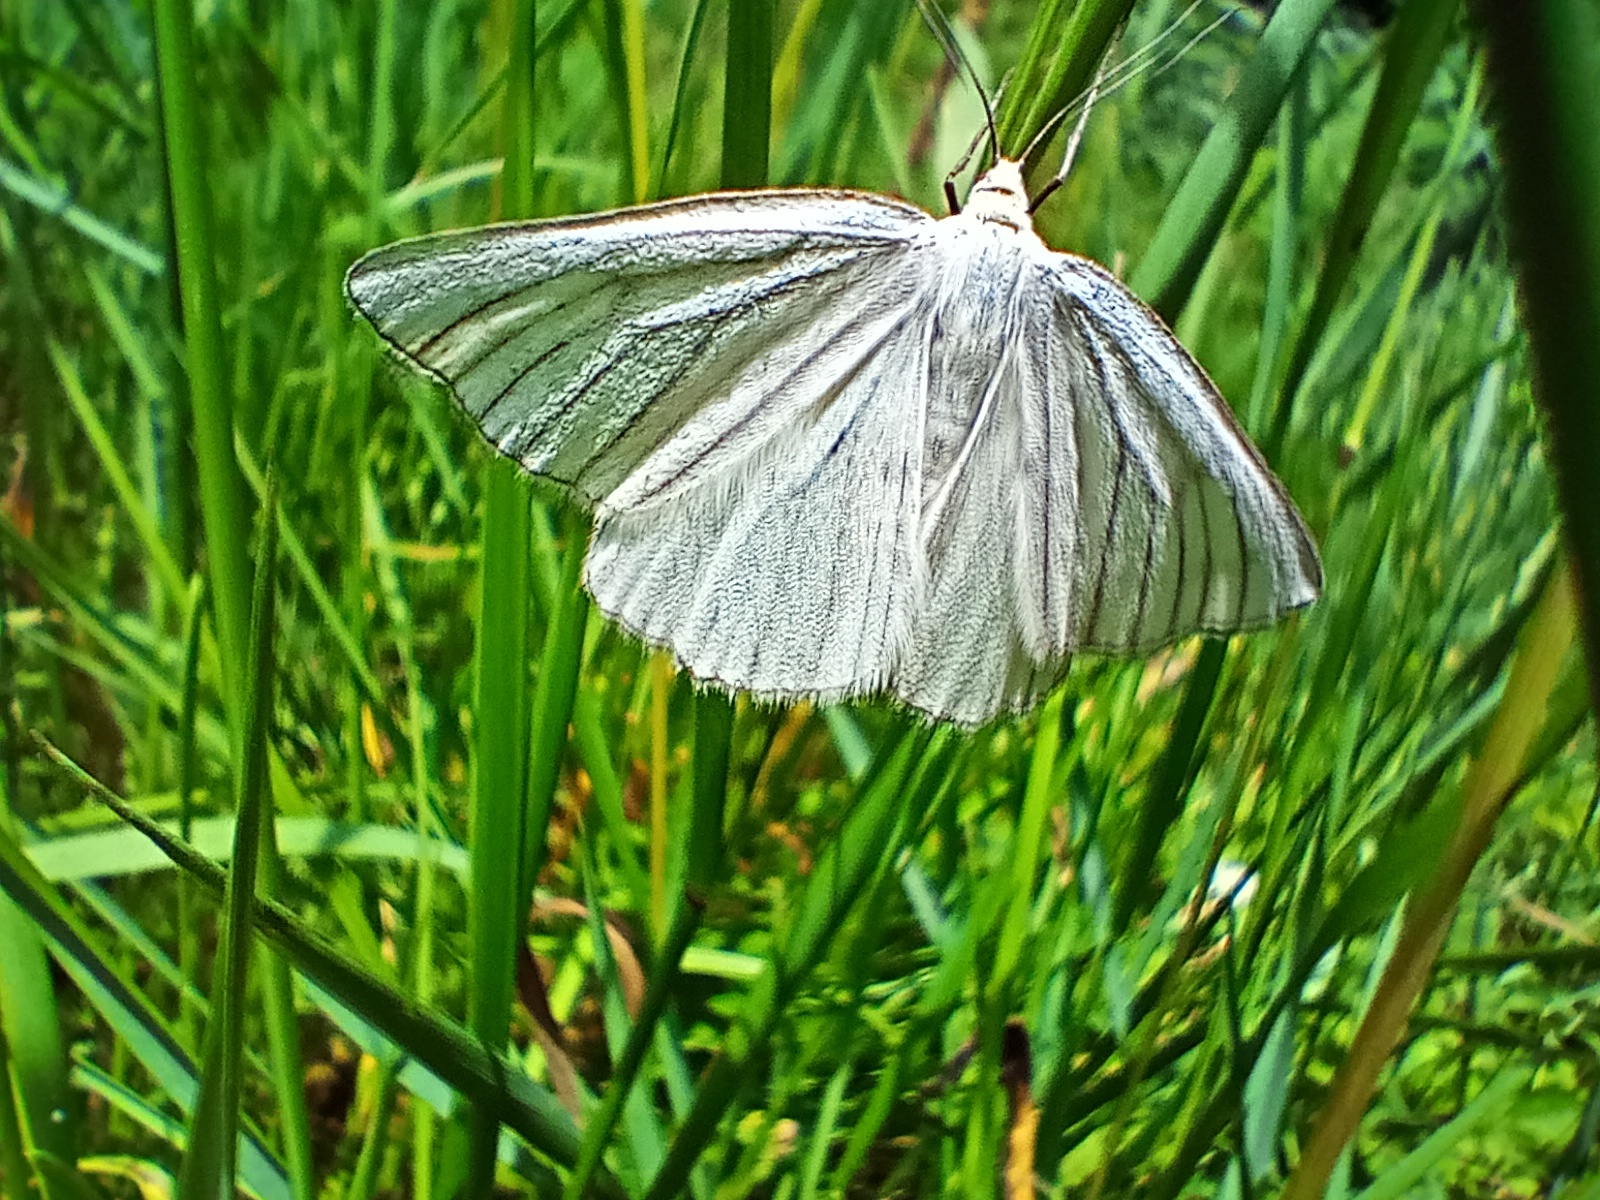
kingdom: Animalia
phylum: Arthropoda
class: Insecta
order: Lepidoptera
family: Geometridae
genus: Siona
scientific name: Siona lineata
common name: Black-veined moth
